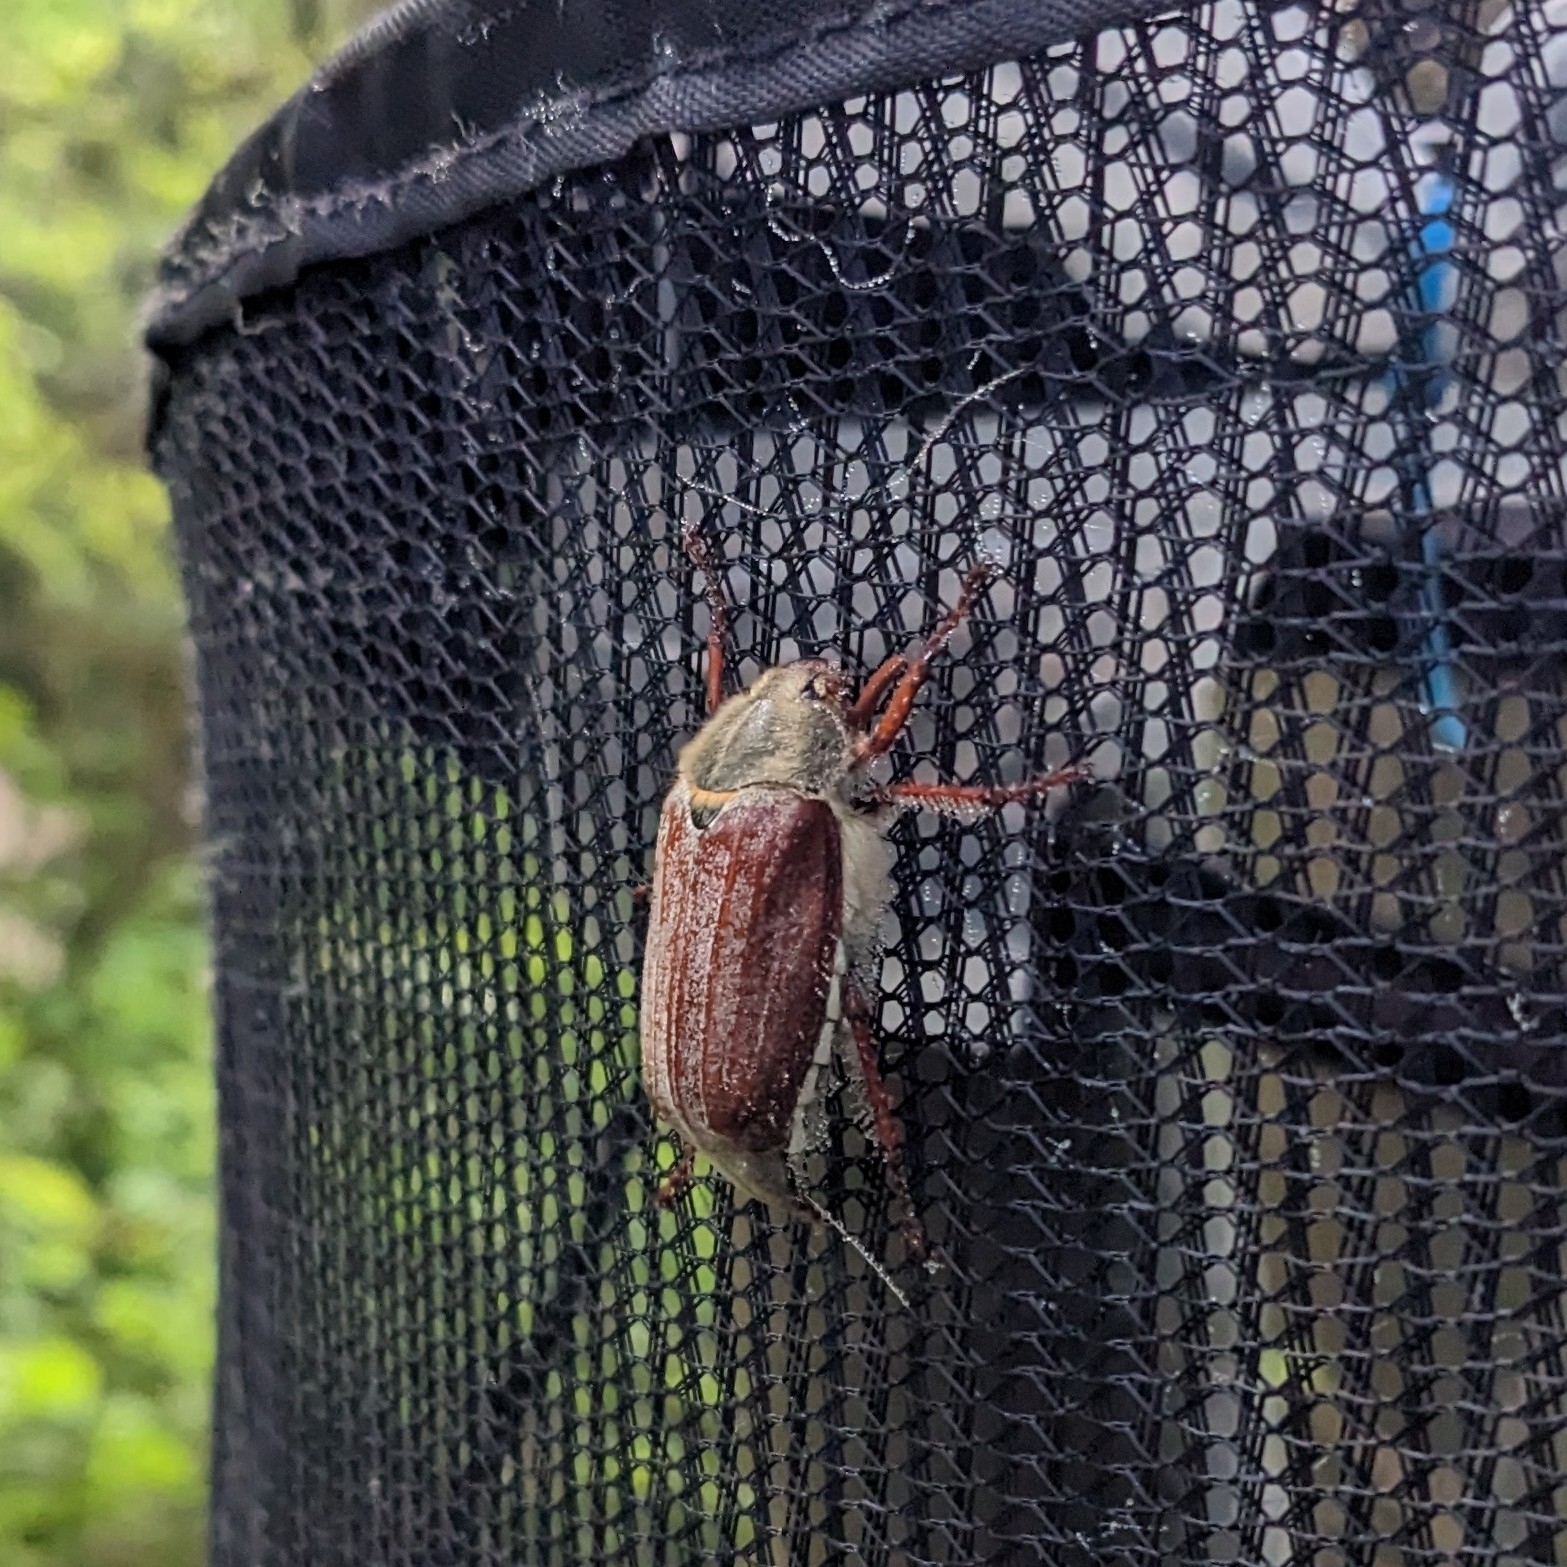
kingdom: Animalia
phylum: Arthropoda
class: Insecta
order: Coleoptera
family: Scarabaeidae
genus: Melolontha
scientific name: Melolontha melolontha
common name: Cockchafer maybeetle
